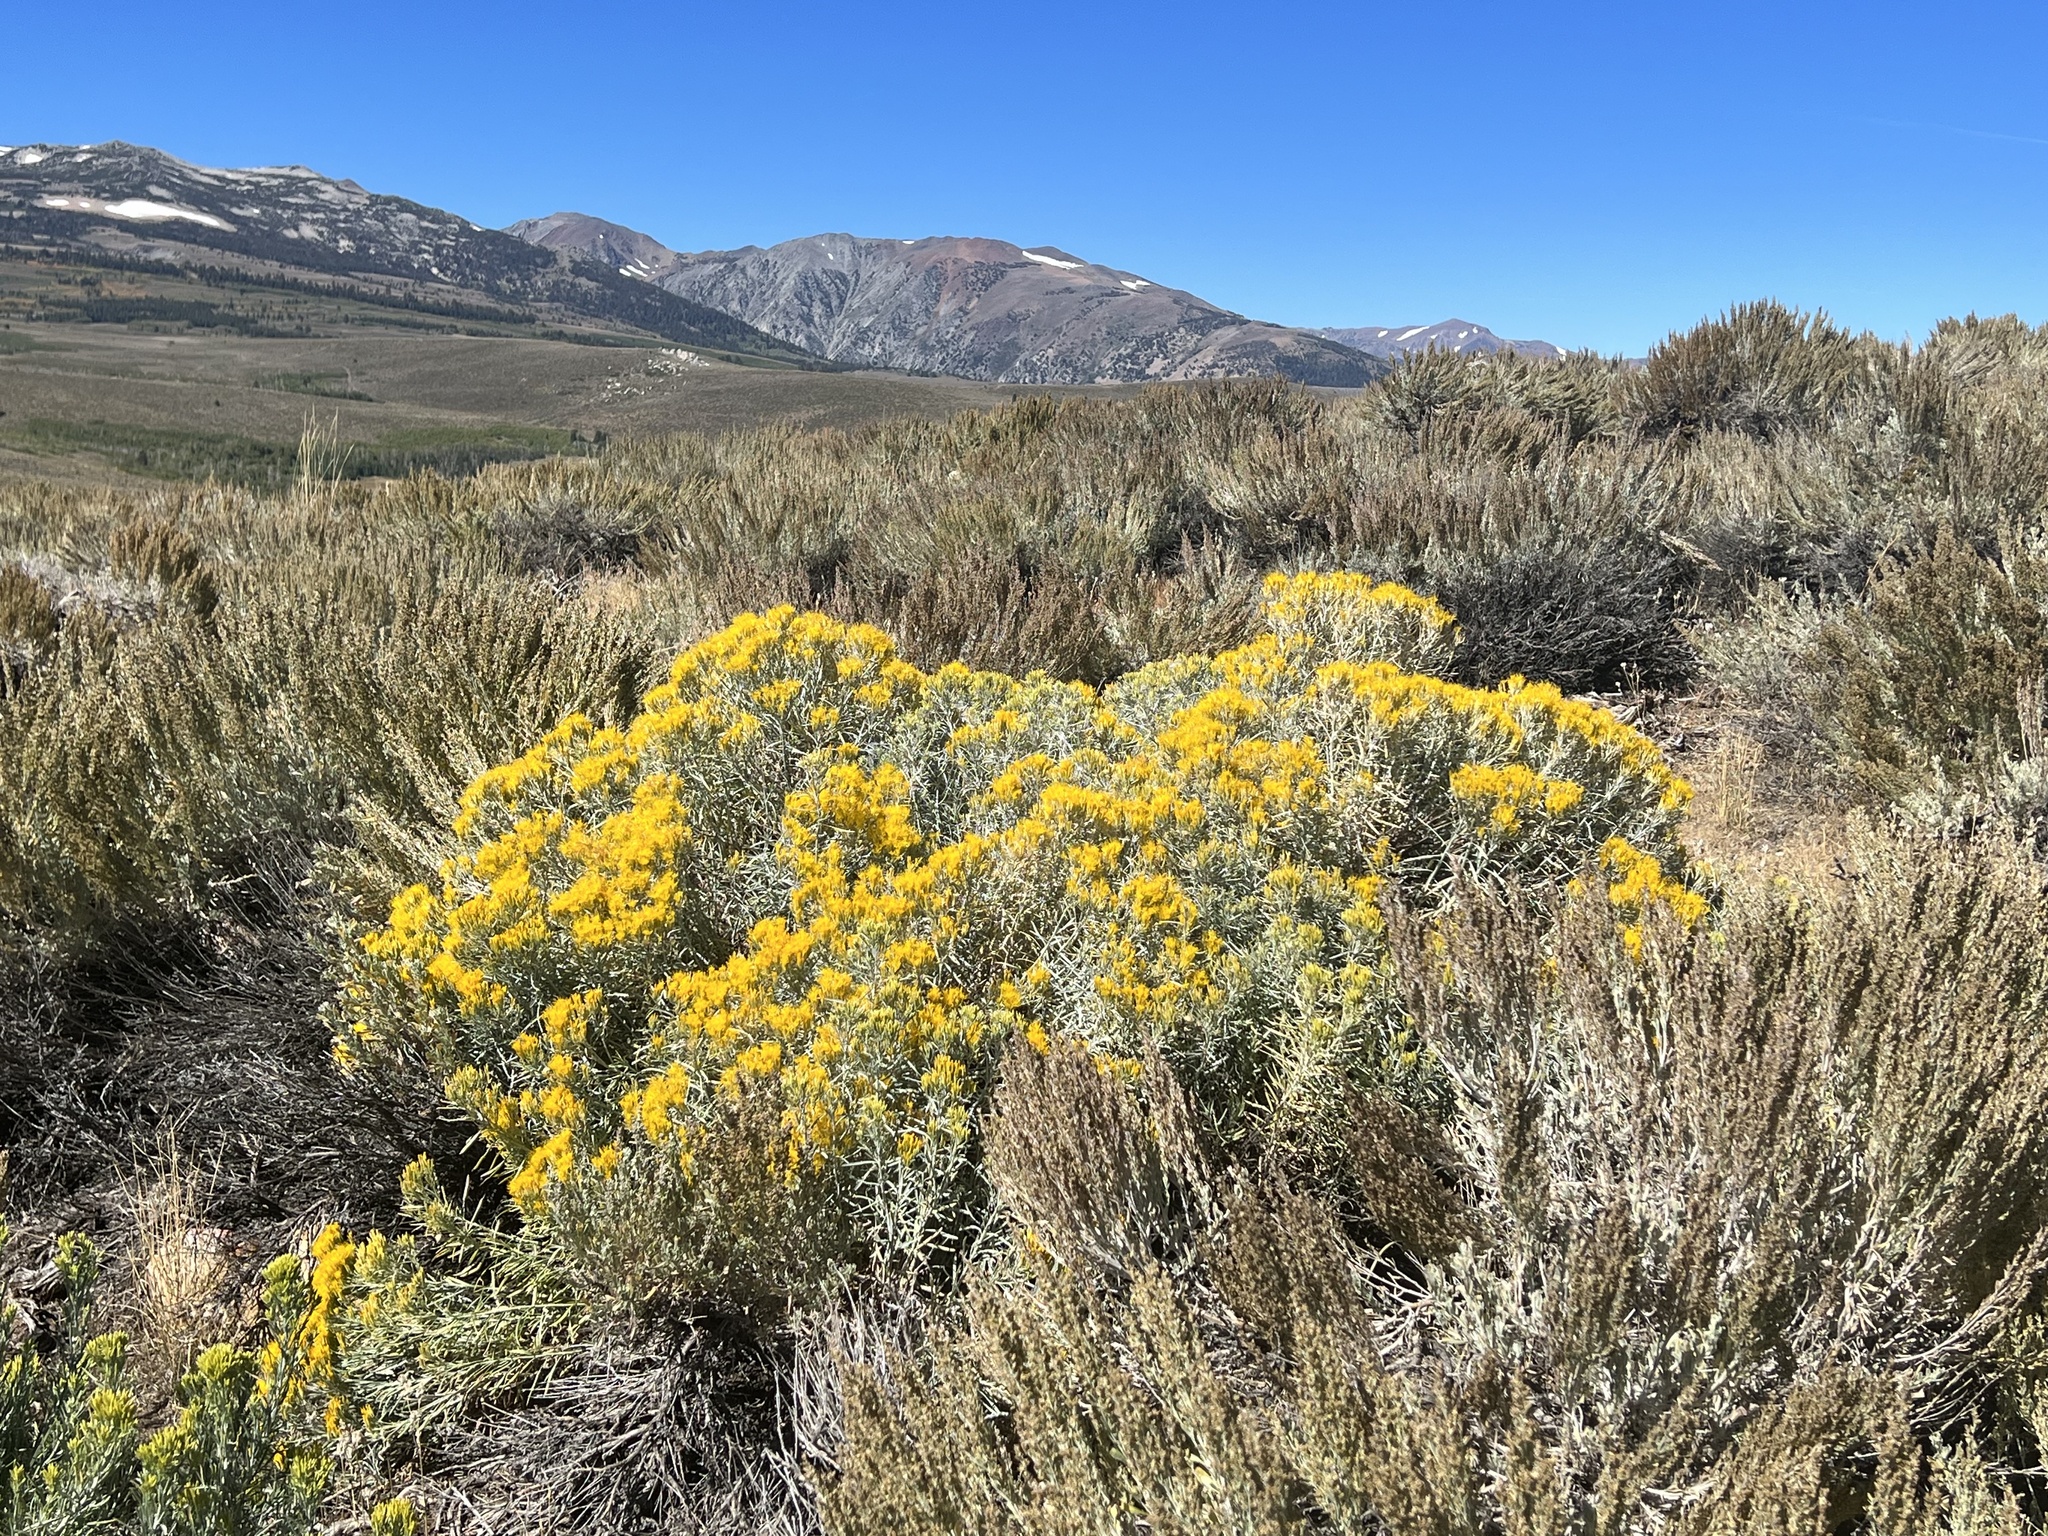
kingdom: Plantae
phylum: Tracheophyta
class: Magnoliopsida
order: Asterales
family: Asteraceae
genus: Ericameria
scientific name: Ericameria nauseosa
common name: Rubber rabbitbrush
